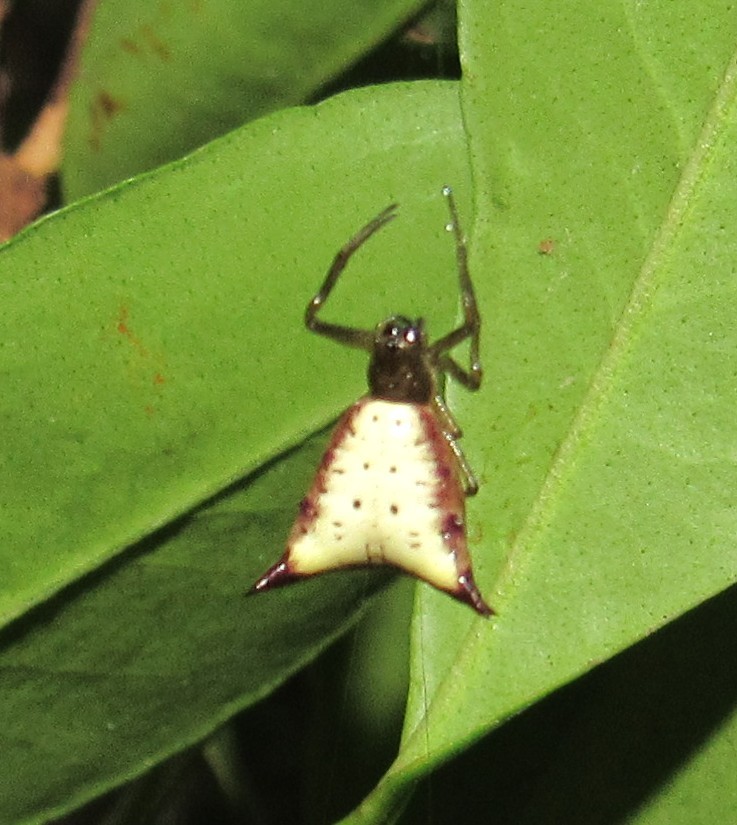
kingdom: Animalia
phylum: Arthropoda
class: Arachnida
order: Araneae
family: Araneidae
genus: Micrathena
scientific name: Micrathena furva
